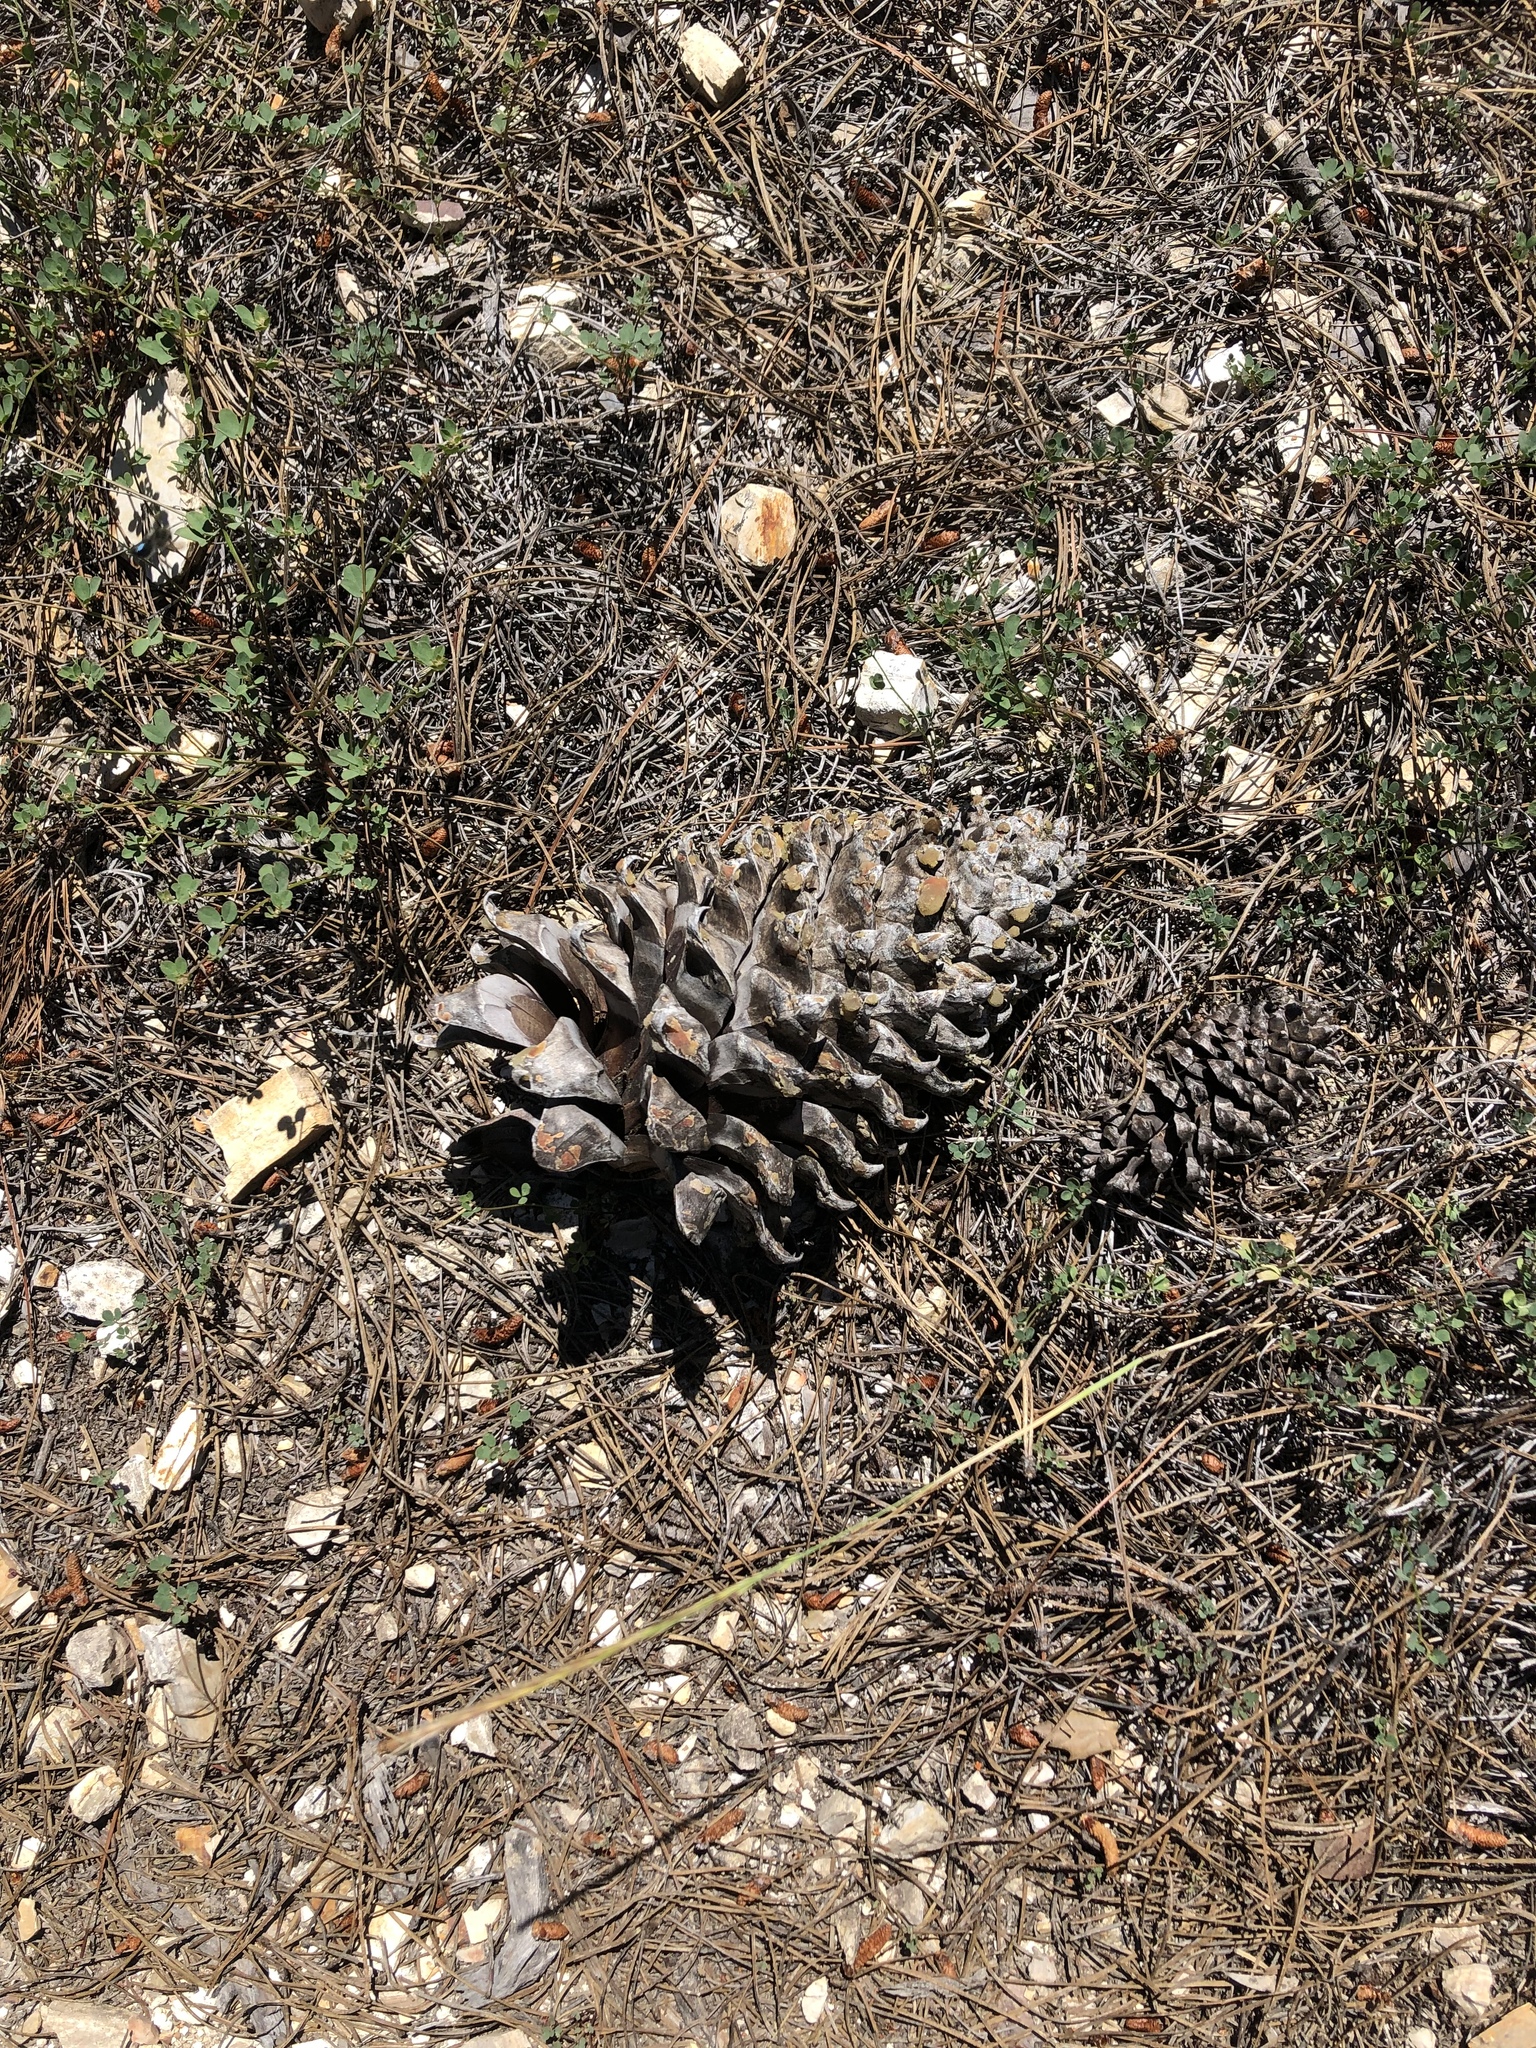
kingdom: Plantae
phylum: Tracheophyta
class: Pinopsida
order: Pinales
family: Pinaceae
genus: Pinus
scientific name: Pinus coulteri
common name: Coulter pine
